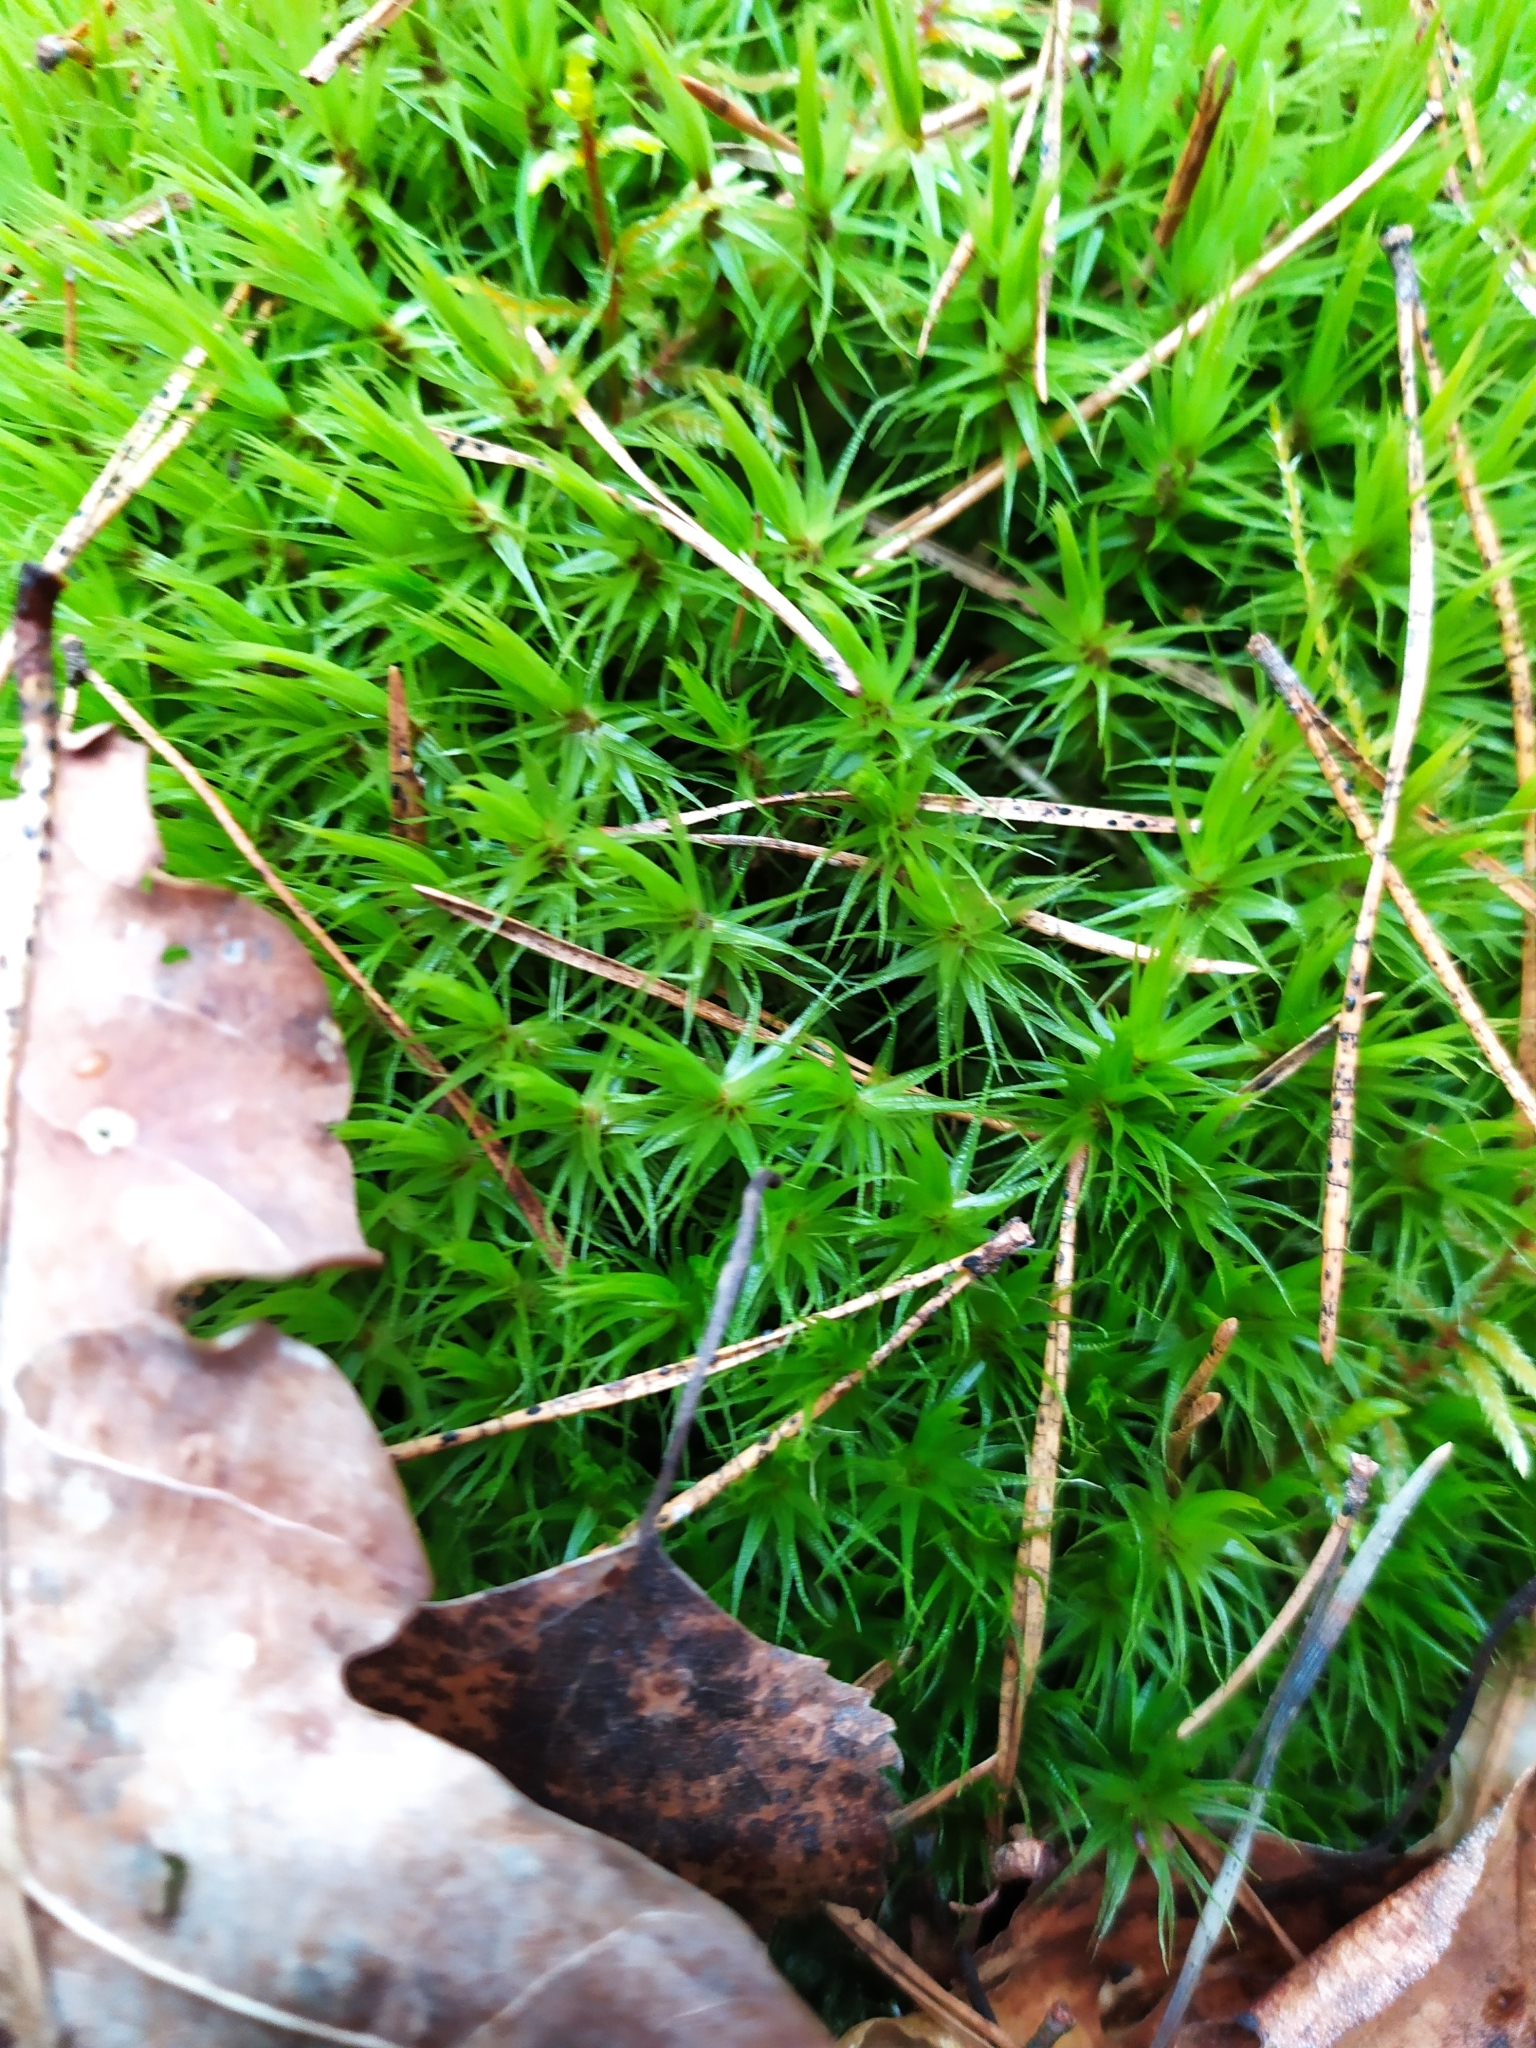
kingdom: Plantae
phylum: Bryophyta
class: Bryopsida
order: Dicranales
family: Dicranaceae
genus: Dicranum
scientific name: Dicranum polysetum
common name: Rugose fork-moss
